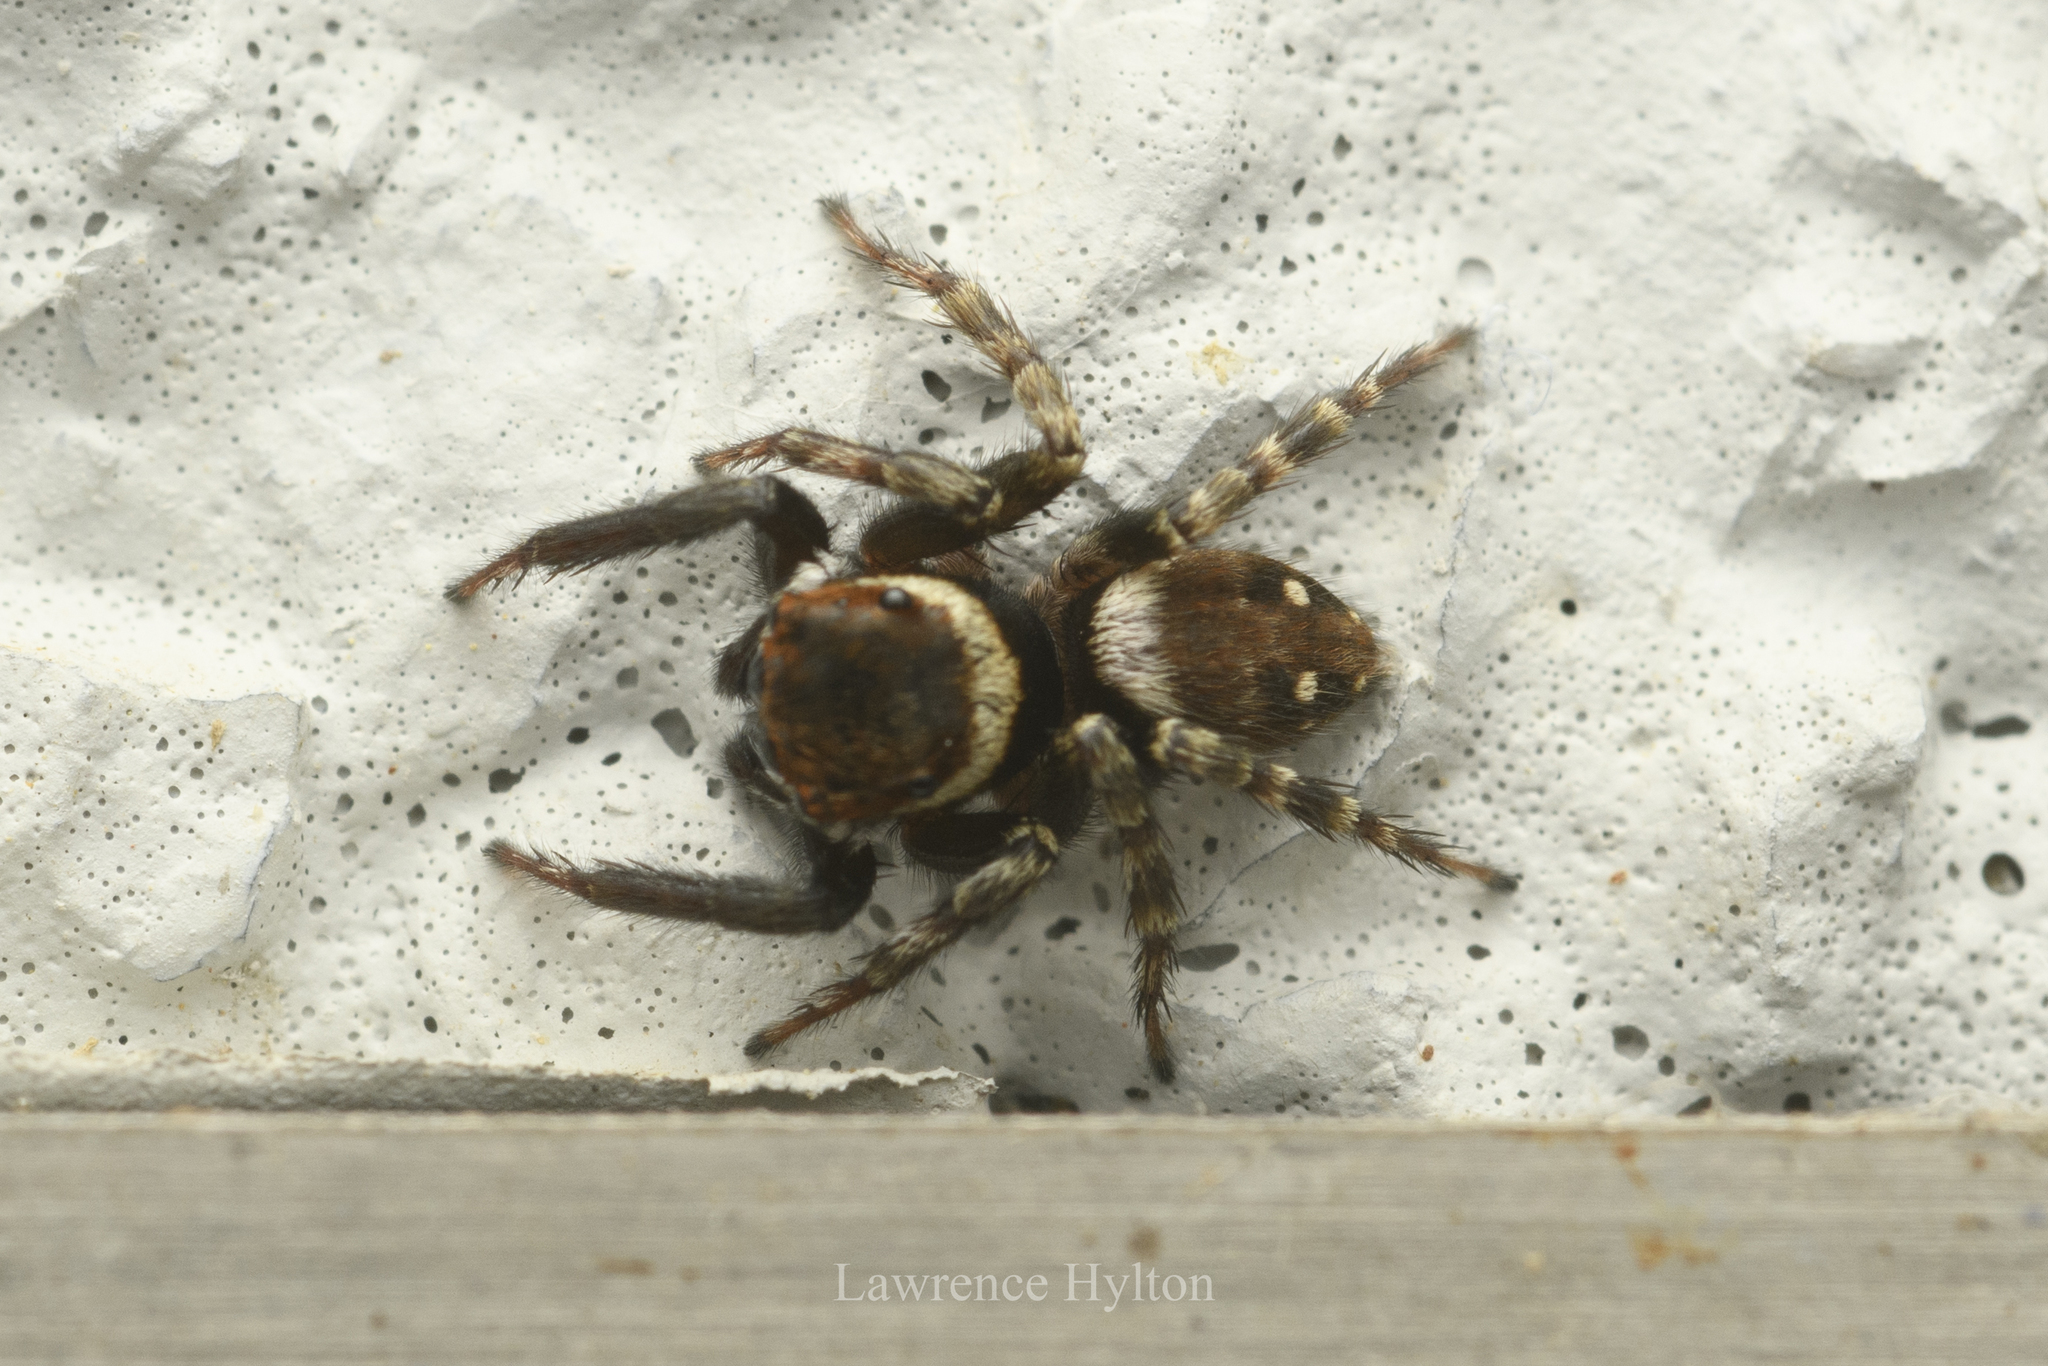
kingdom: Animalia
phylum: Arthropoda
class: Arachnida
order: Araneae
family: Salticidae
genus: Hasarius
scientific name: Hasarius adansoni
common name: Jumping spider
